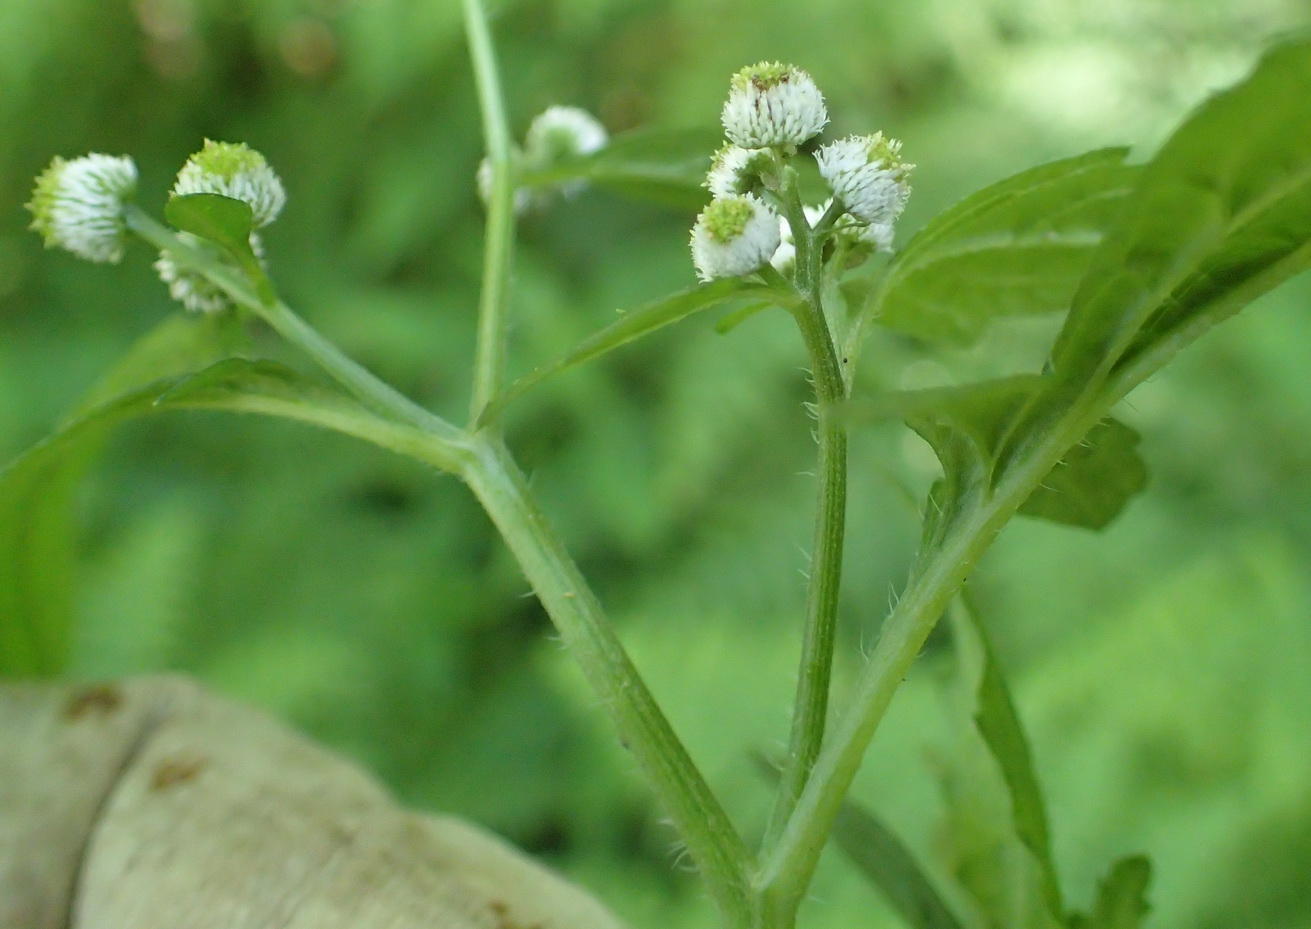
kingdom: Plantae
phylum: Tracheophyta
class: Magnoliopsida
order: Asterales
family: Asteraceae
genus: Dichrocephala
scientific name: Dichrocephala integrifolia
